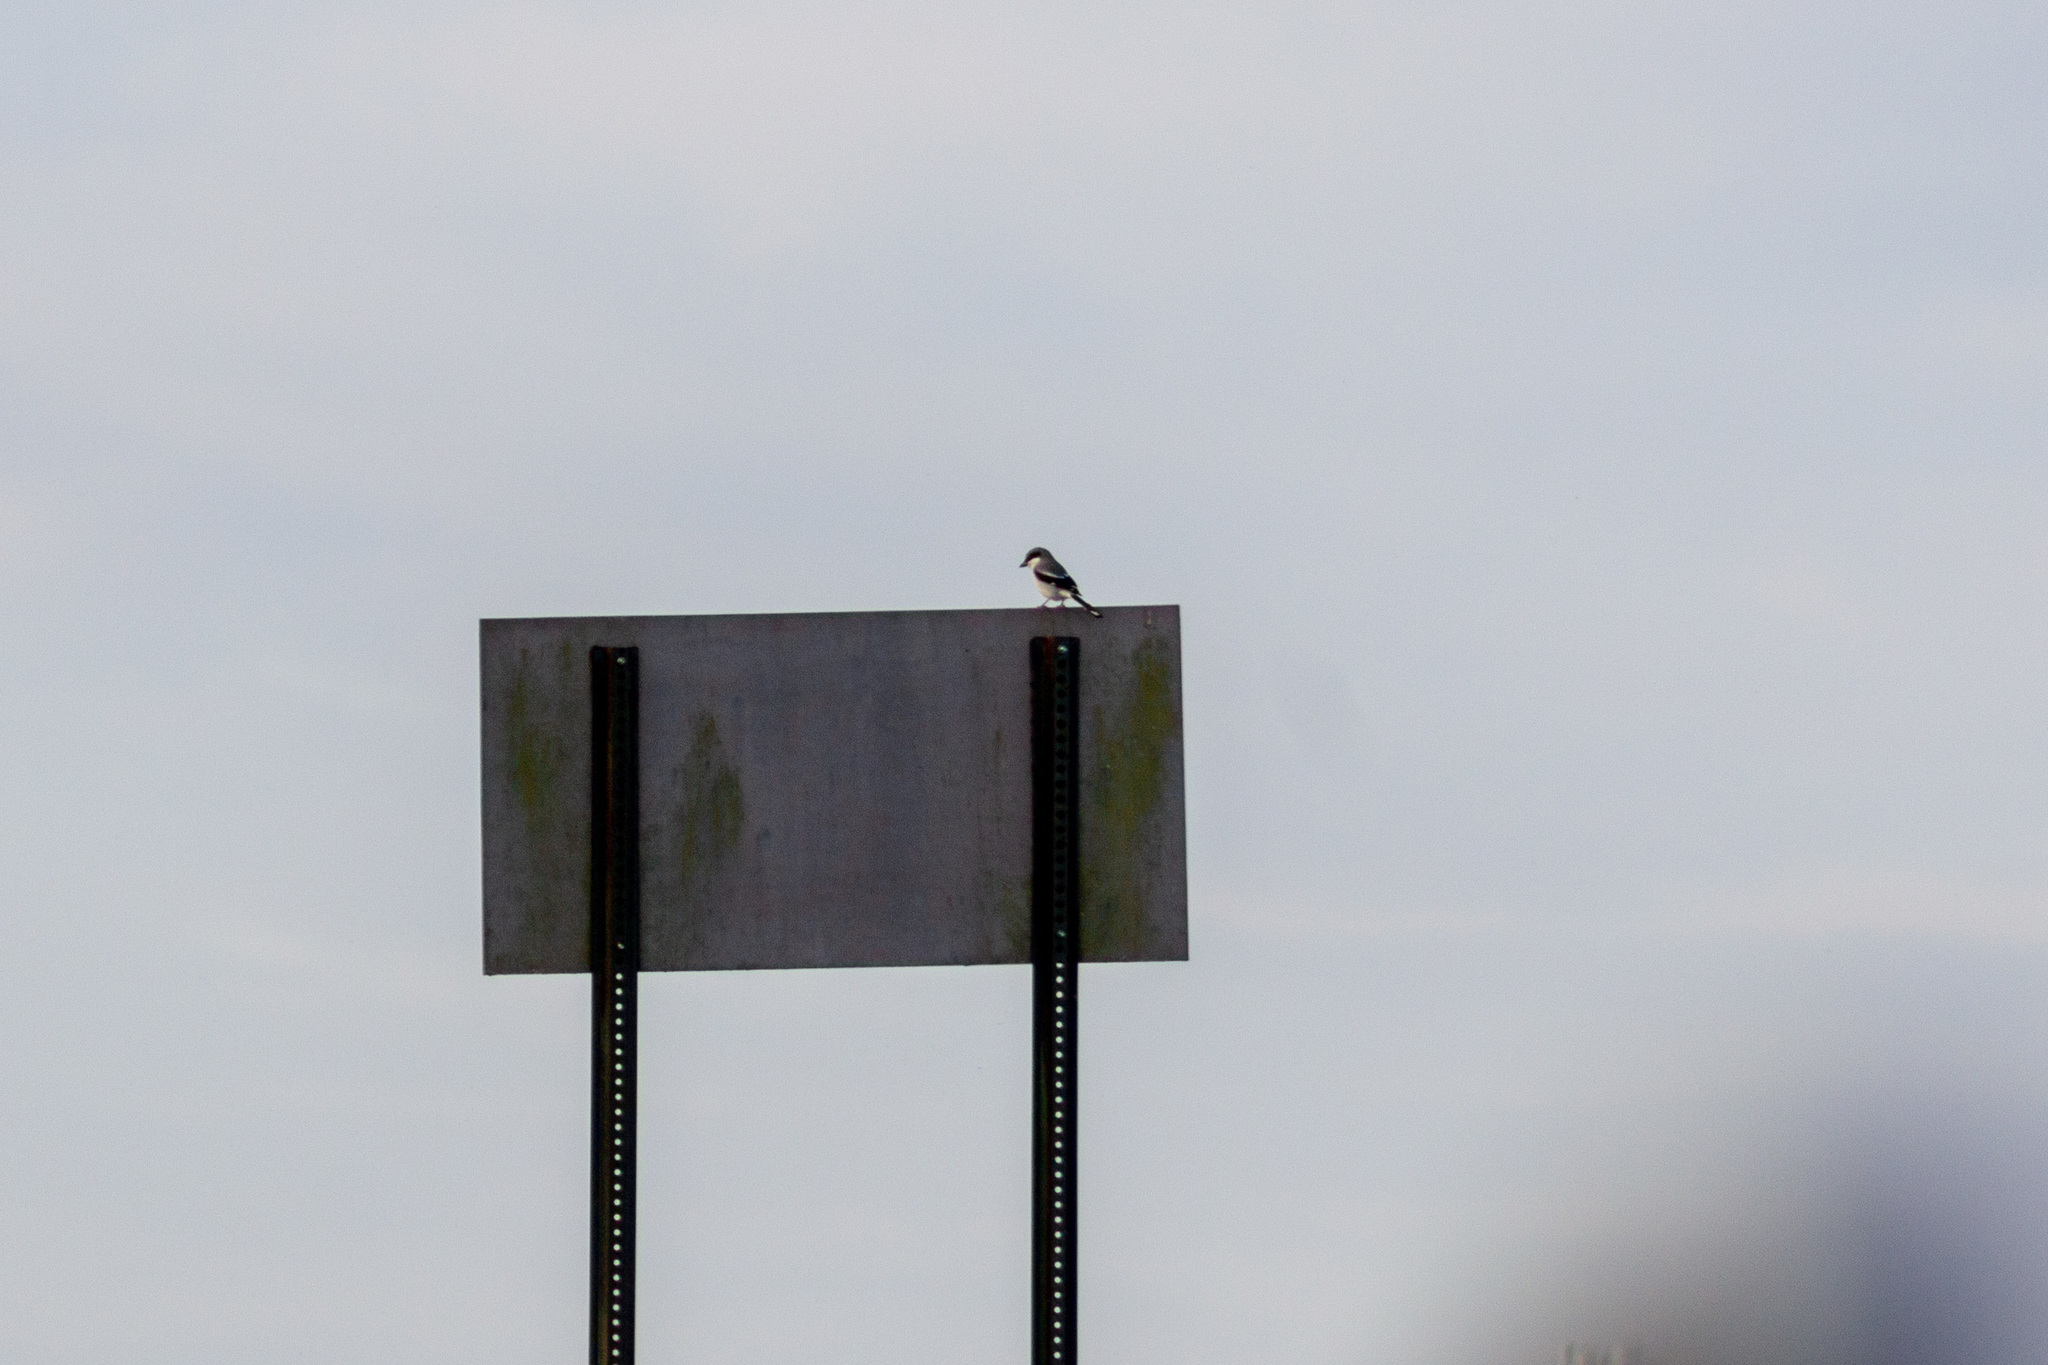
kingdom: Animalia
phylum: Chordata
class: Aves
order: Passeriformes
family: Laniidae
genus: Lanius
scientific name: Lanius ludovicianus
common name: Loggerhead shrike
